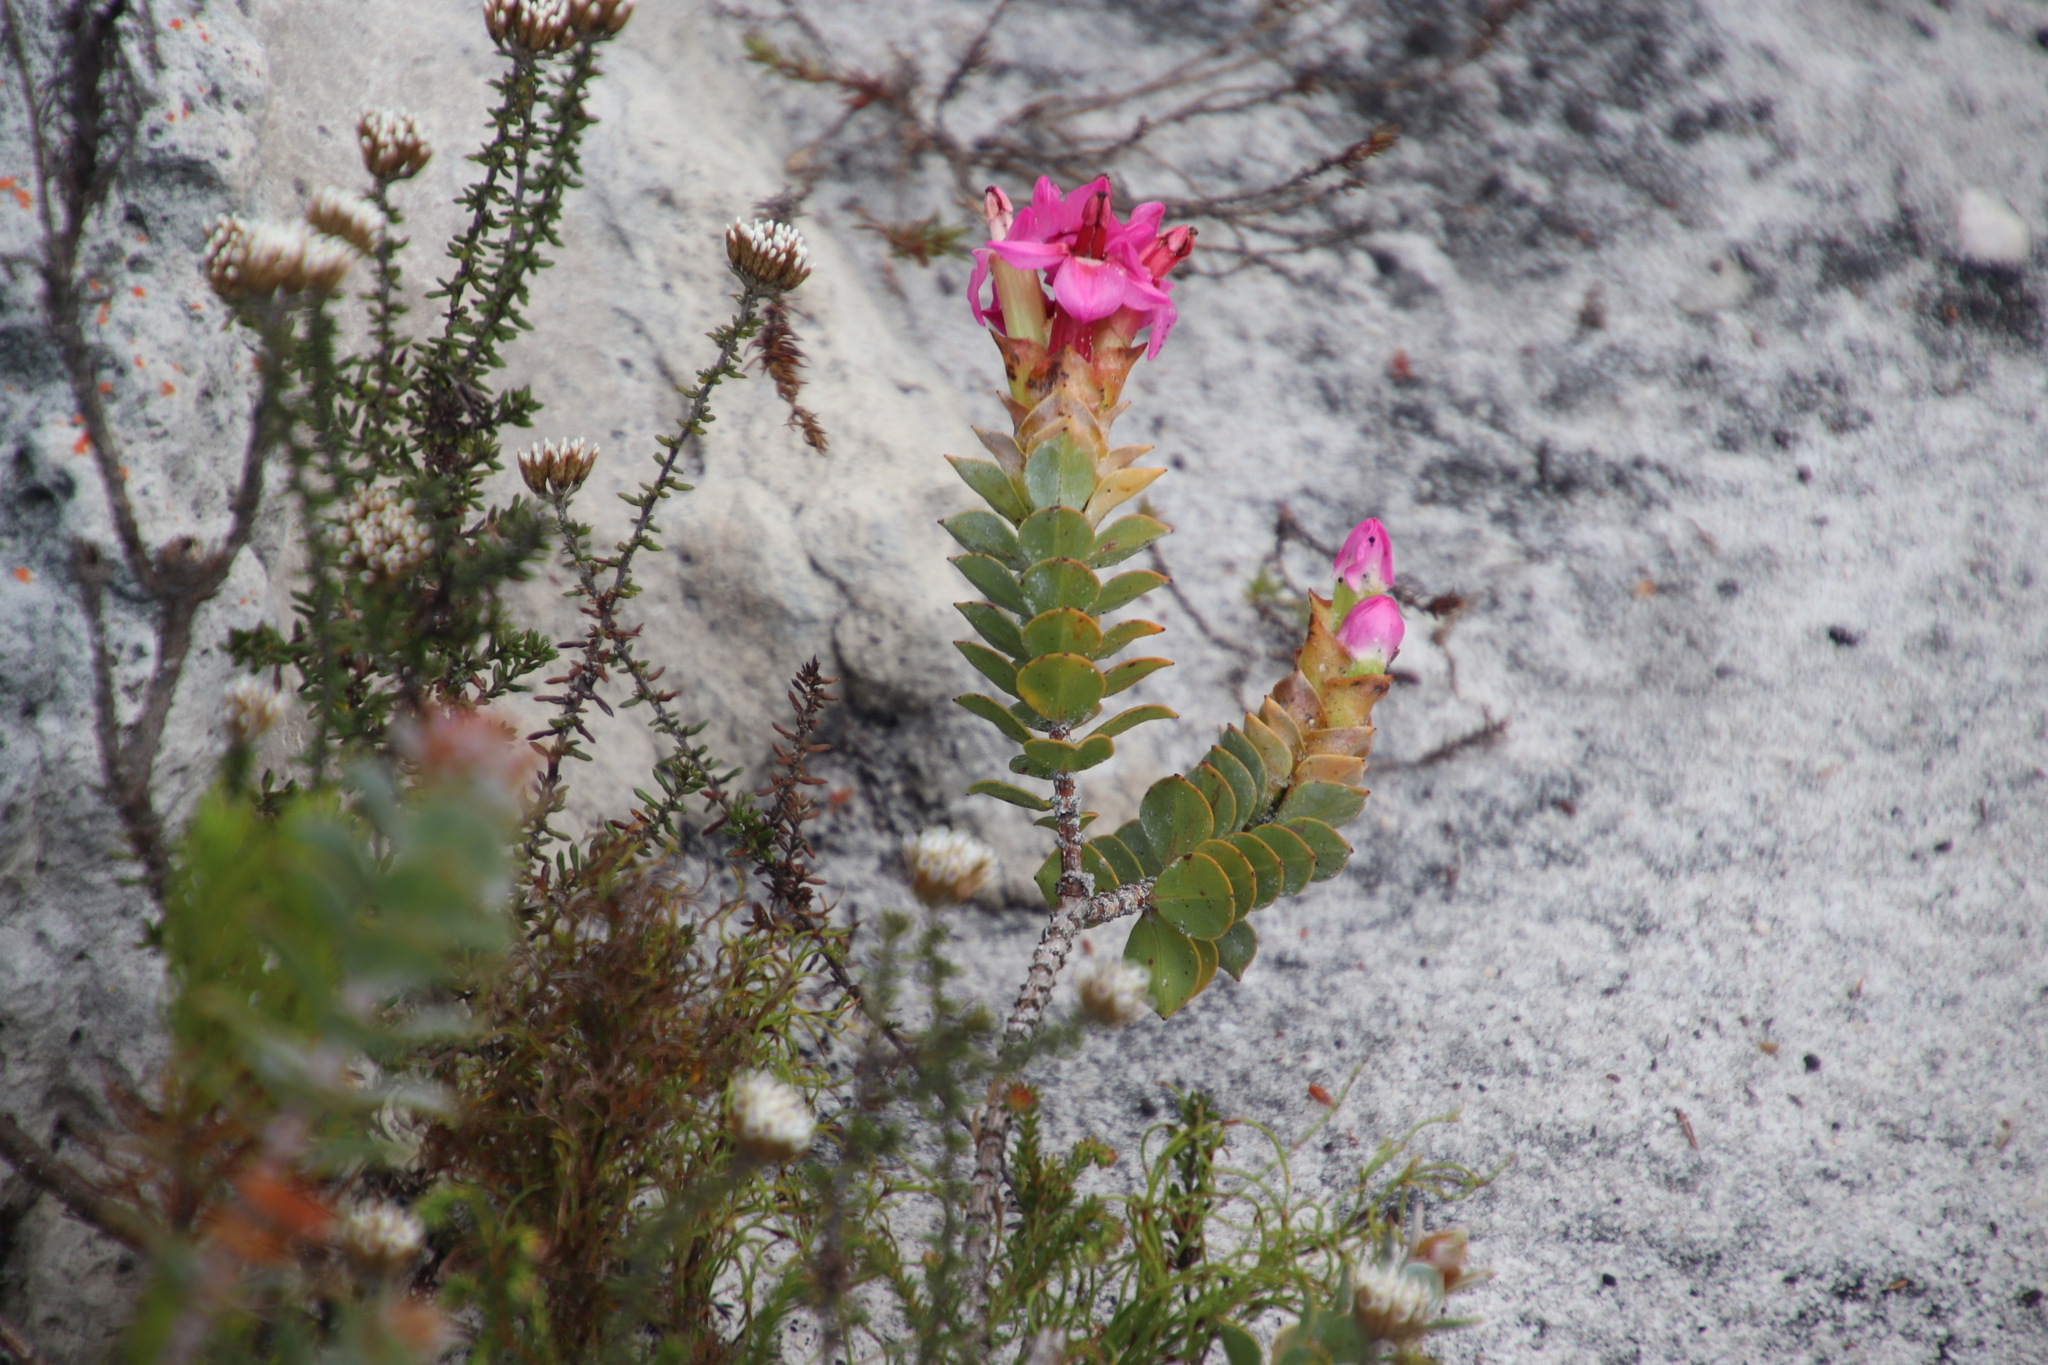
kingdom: Plantae
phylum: Tracheophyta
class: Magnoliopsida
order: Myrtales
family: Penaeaceae
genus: Saltera
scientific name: Saltera sarcocolla
